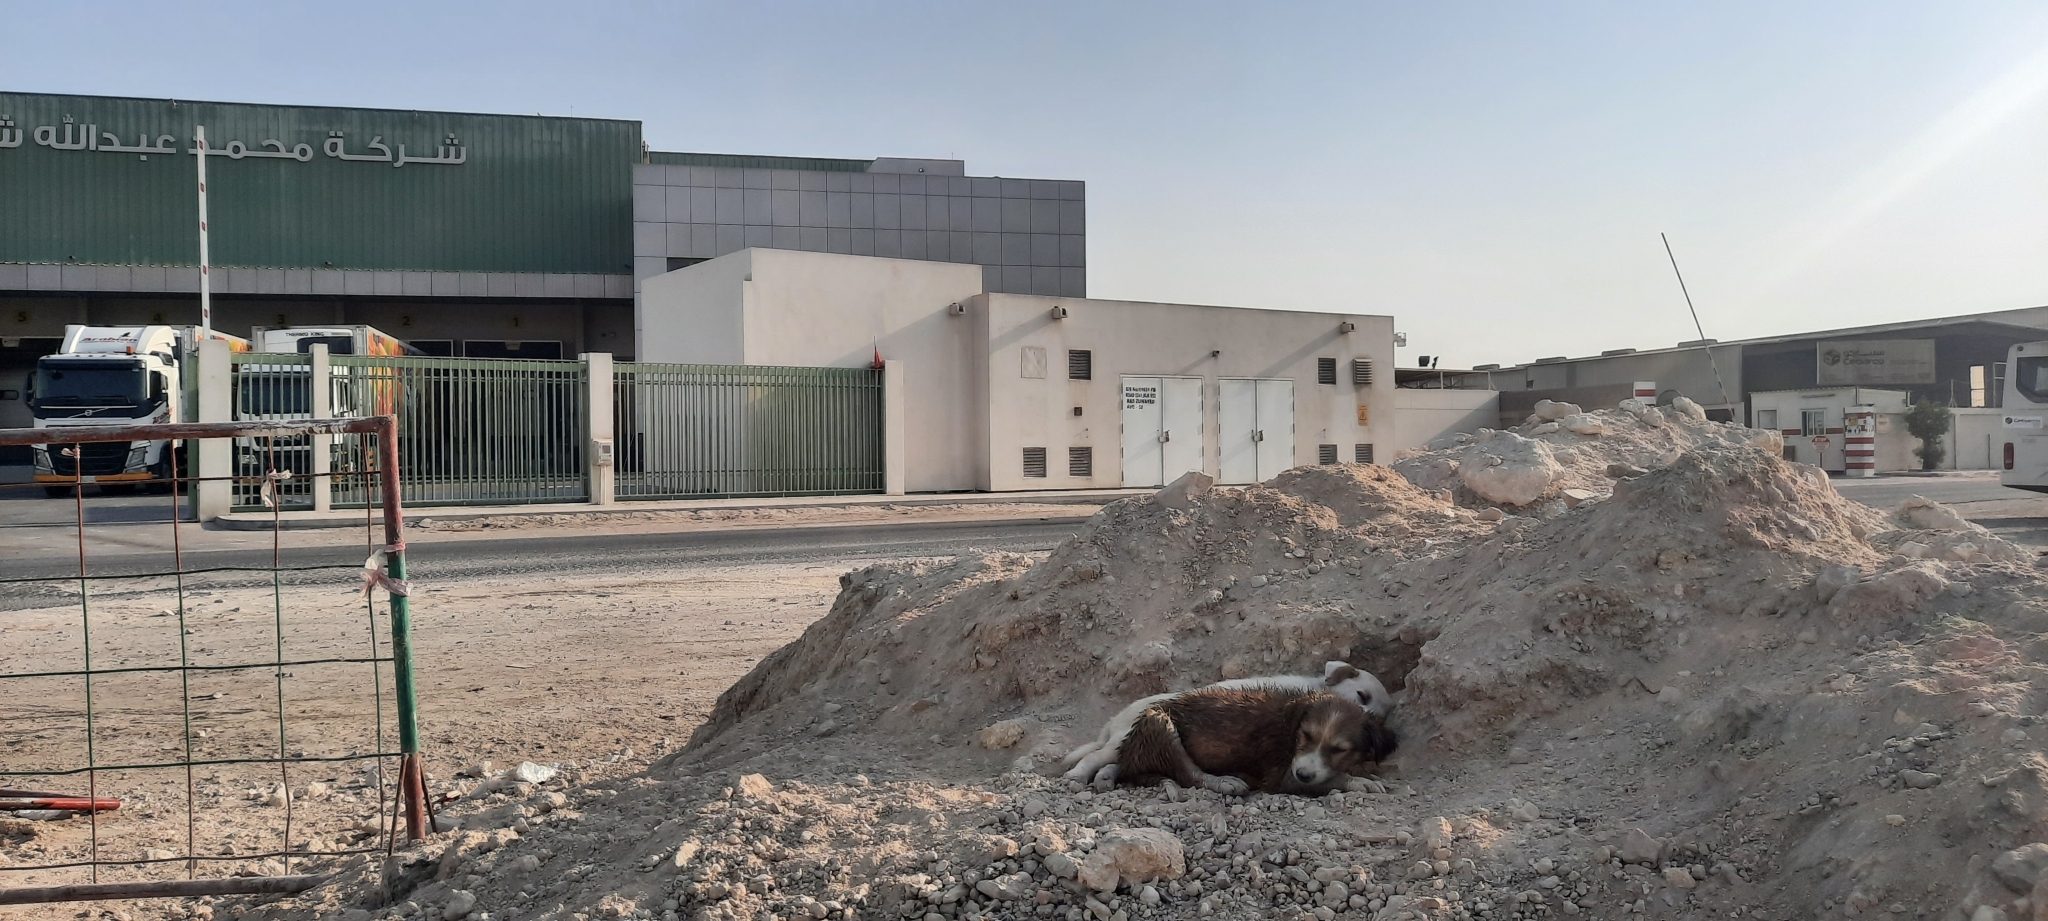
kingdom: Animalia
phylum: Chordata
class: Mammalia
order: Carnivora
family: Canidae
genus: Canis
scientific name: Canis lupus
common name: Gray wolf
